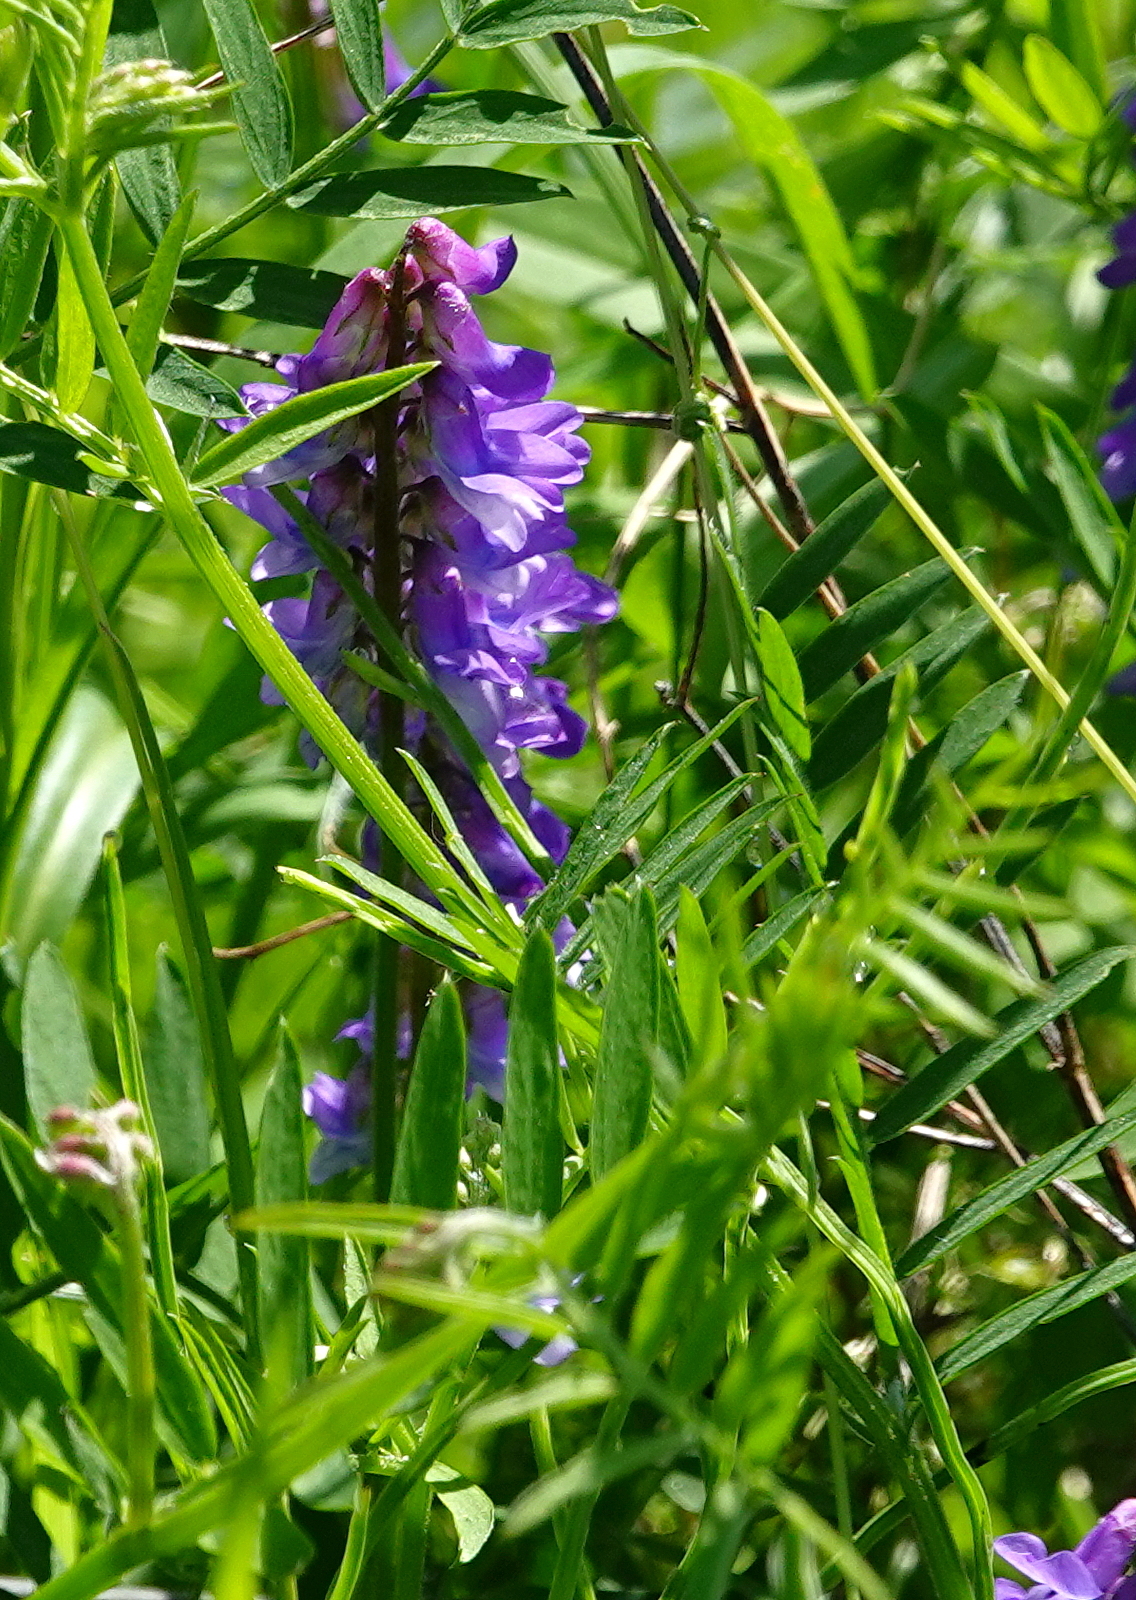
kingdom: Plantae
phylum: Tracheophyta
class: Magnoliopsida
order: Fabales
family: Fabaceae
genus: Vicia
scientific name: Vicia cracca
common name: Bird vetch
